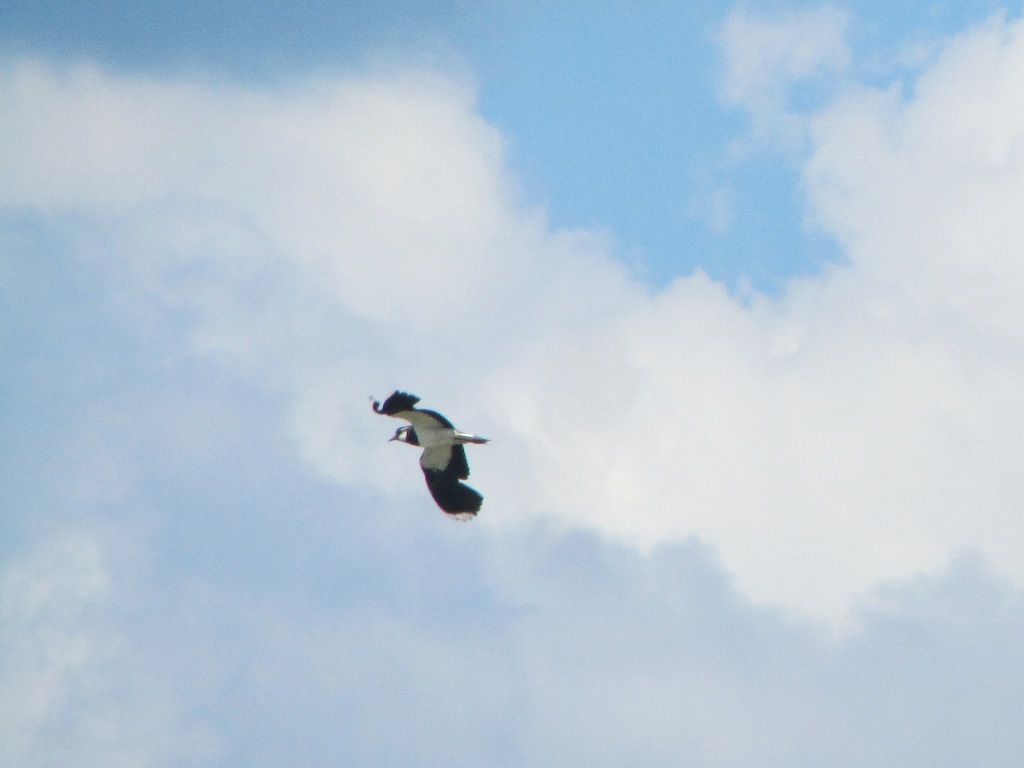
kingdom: Animalia
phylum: Chordata
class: Aves
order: Charadriiformes
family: Charadriidae
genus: Vanellus
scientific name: Vanellus vanellus
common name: Northern lapwing
